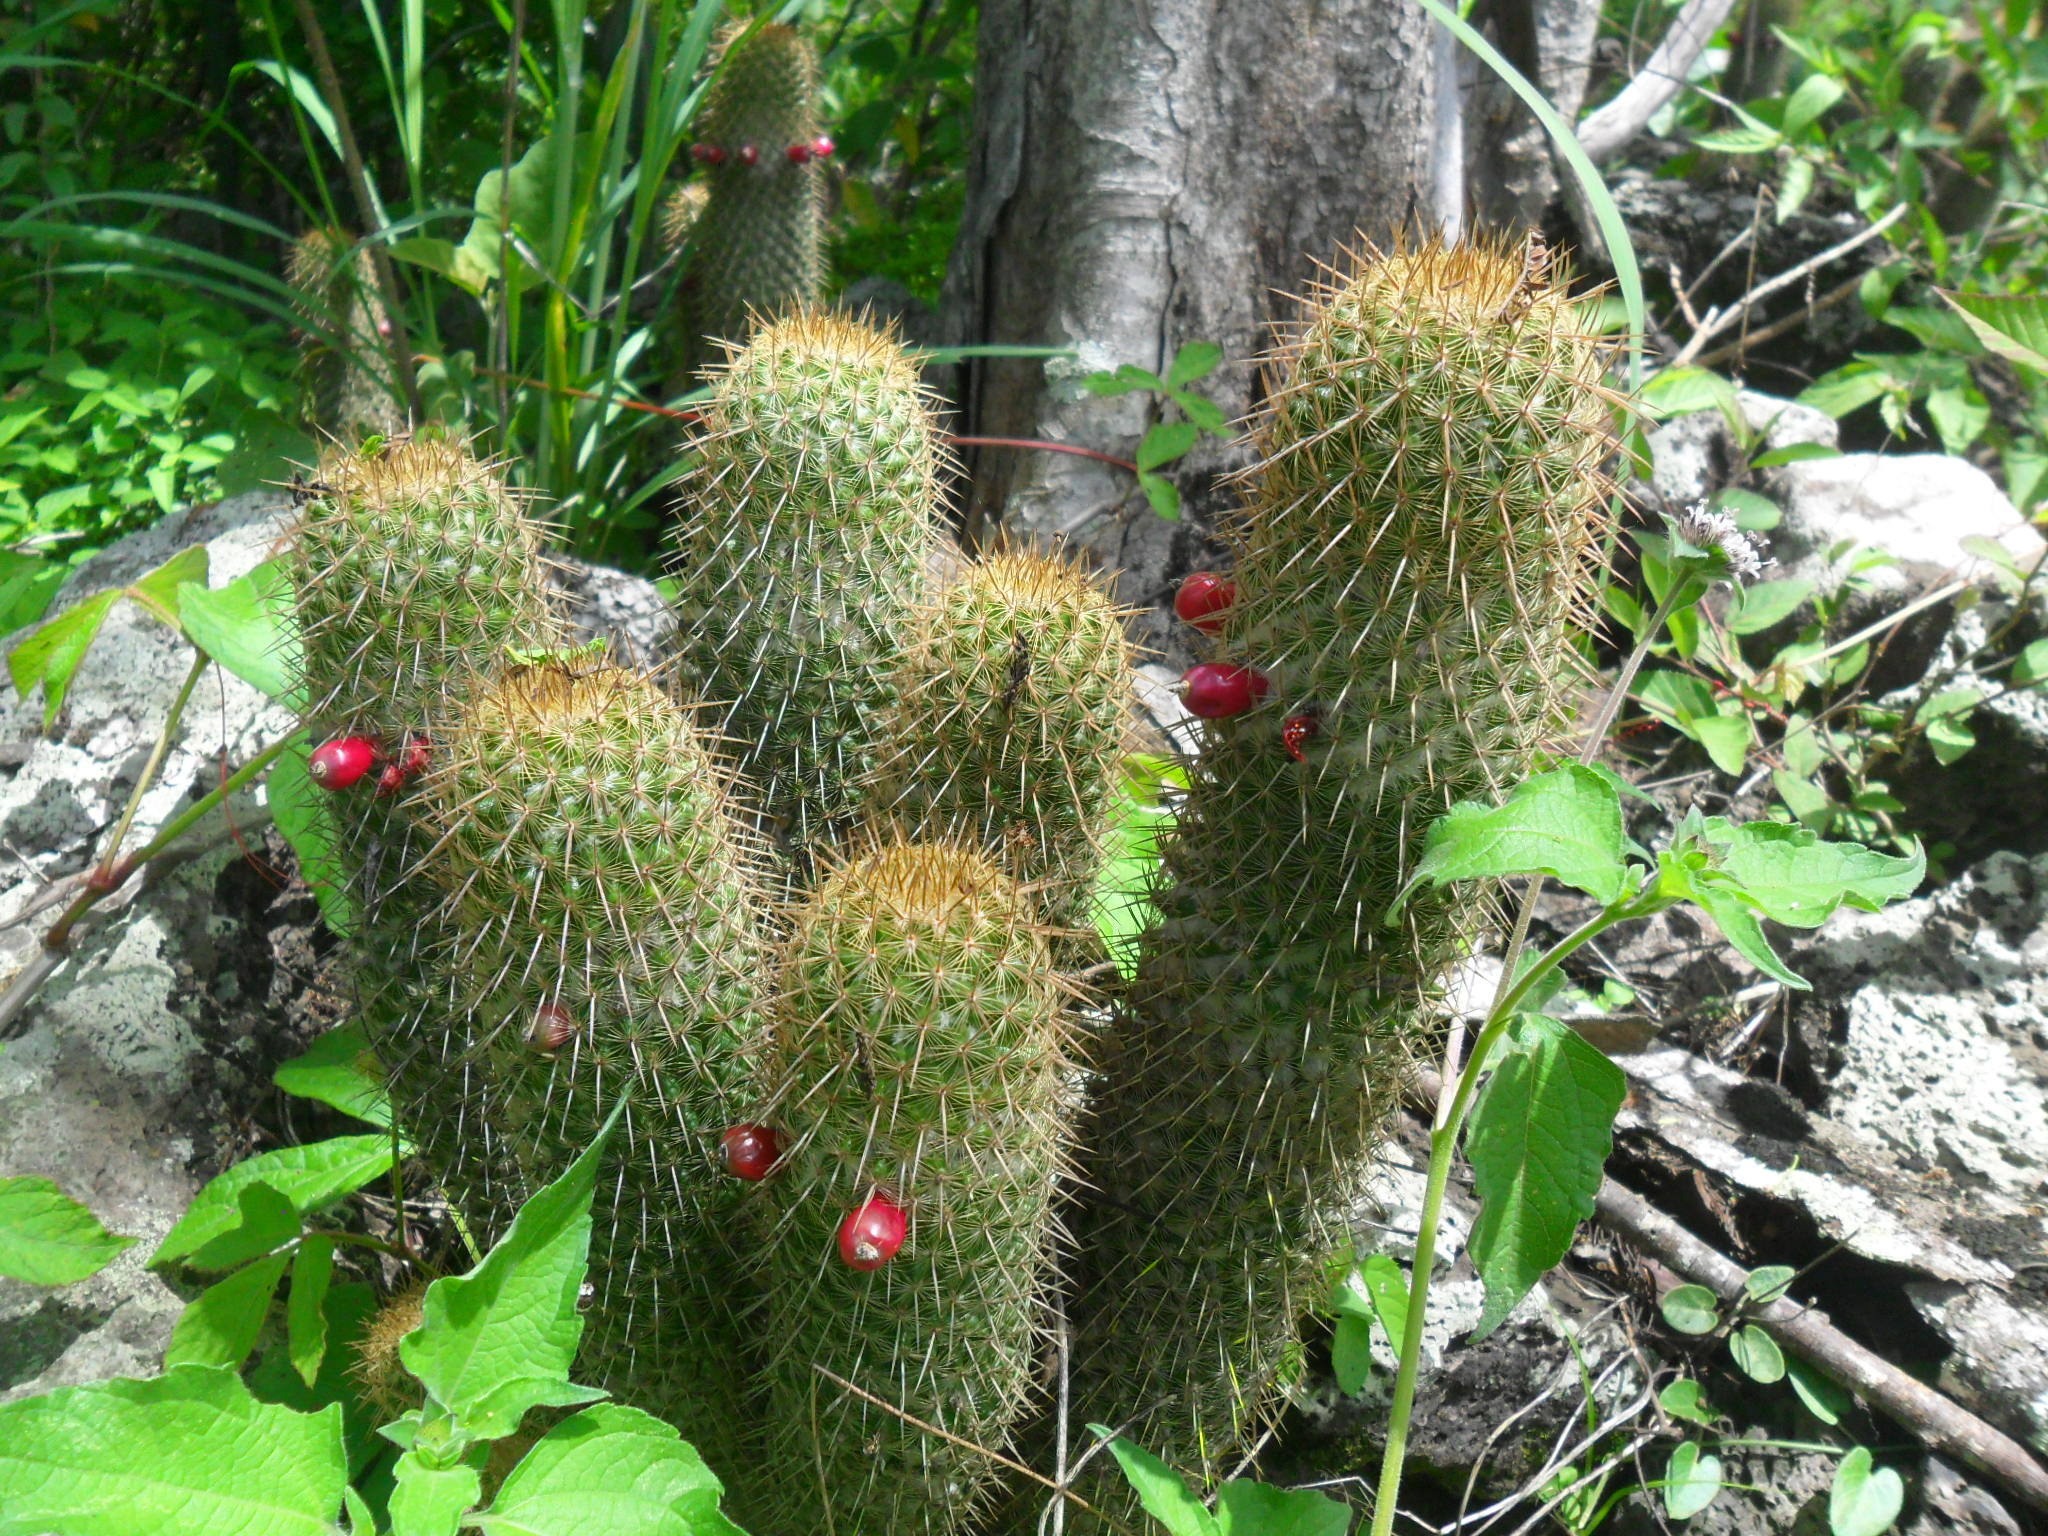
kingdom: Plantae
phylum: Tracheophyta
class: Magnoliopsida
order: Caryophyllales
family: Cactaceae
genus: Mammillaria
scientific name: Mammillaria eriacantha
